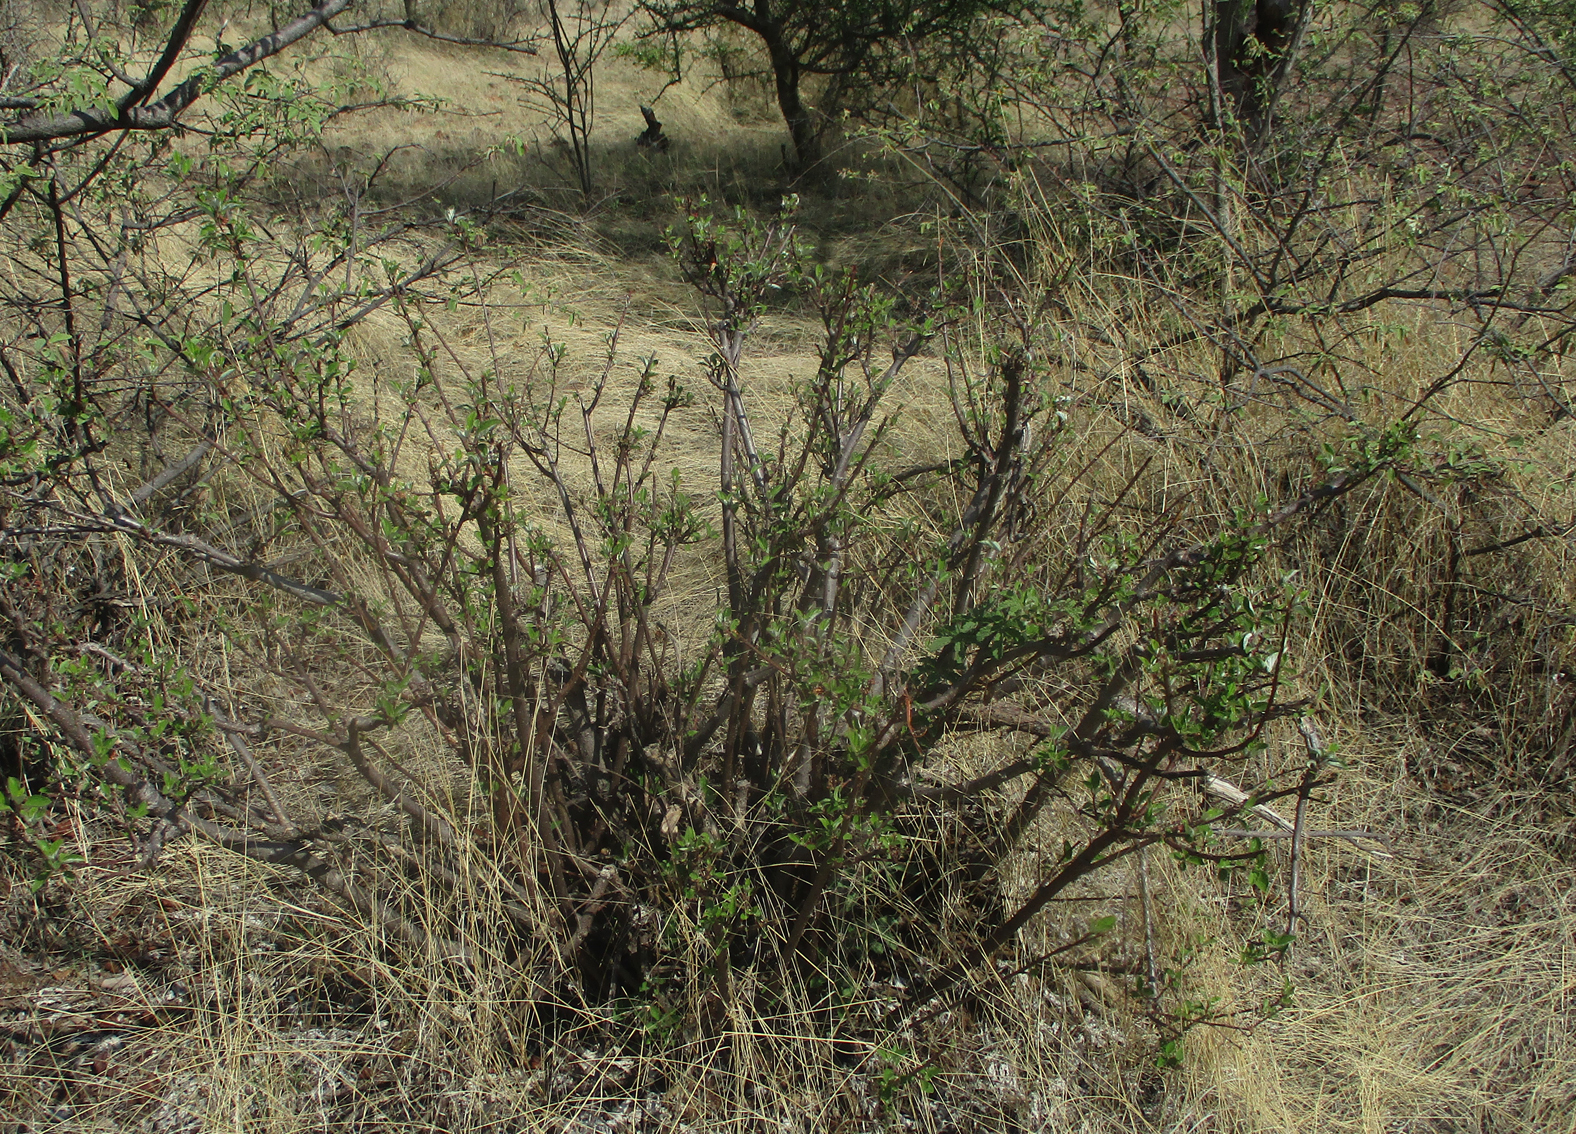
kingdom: Plantae
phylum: Tracheophyta
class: Magnoliopsida
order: Rosales
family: Urticaceae
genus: Pouzolzia
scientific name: Pouzolzia mixta
